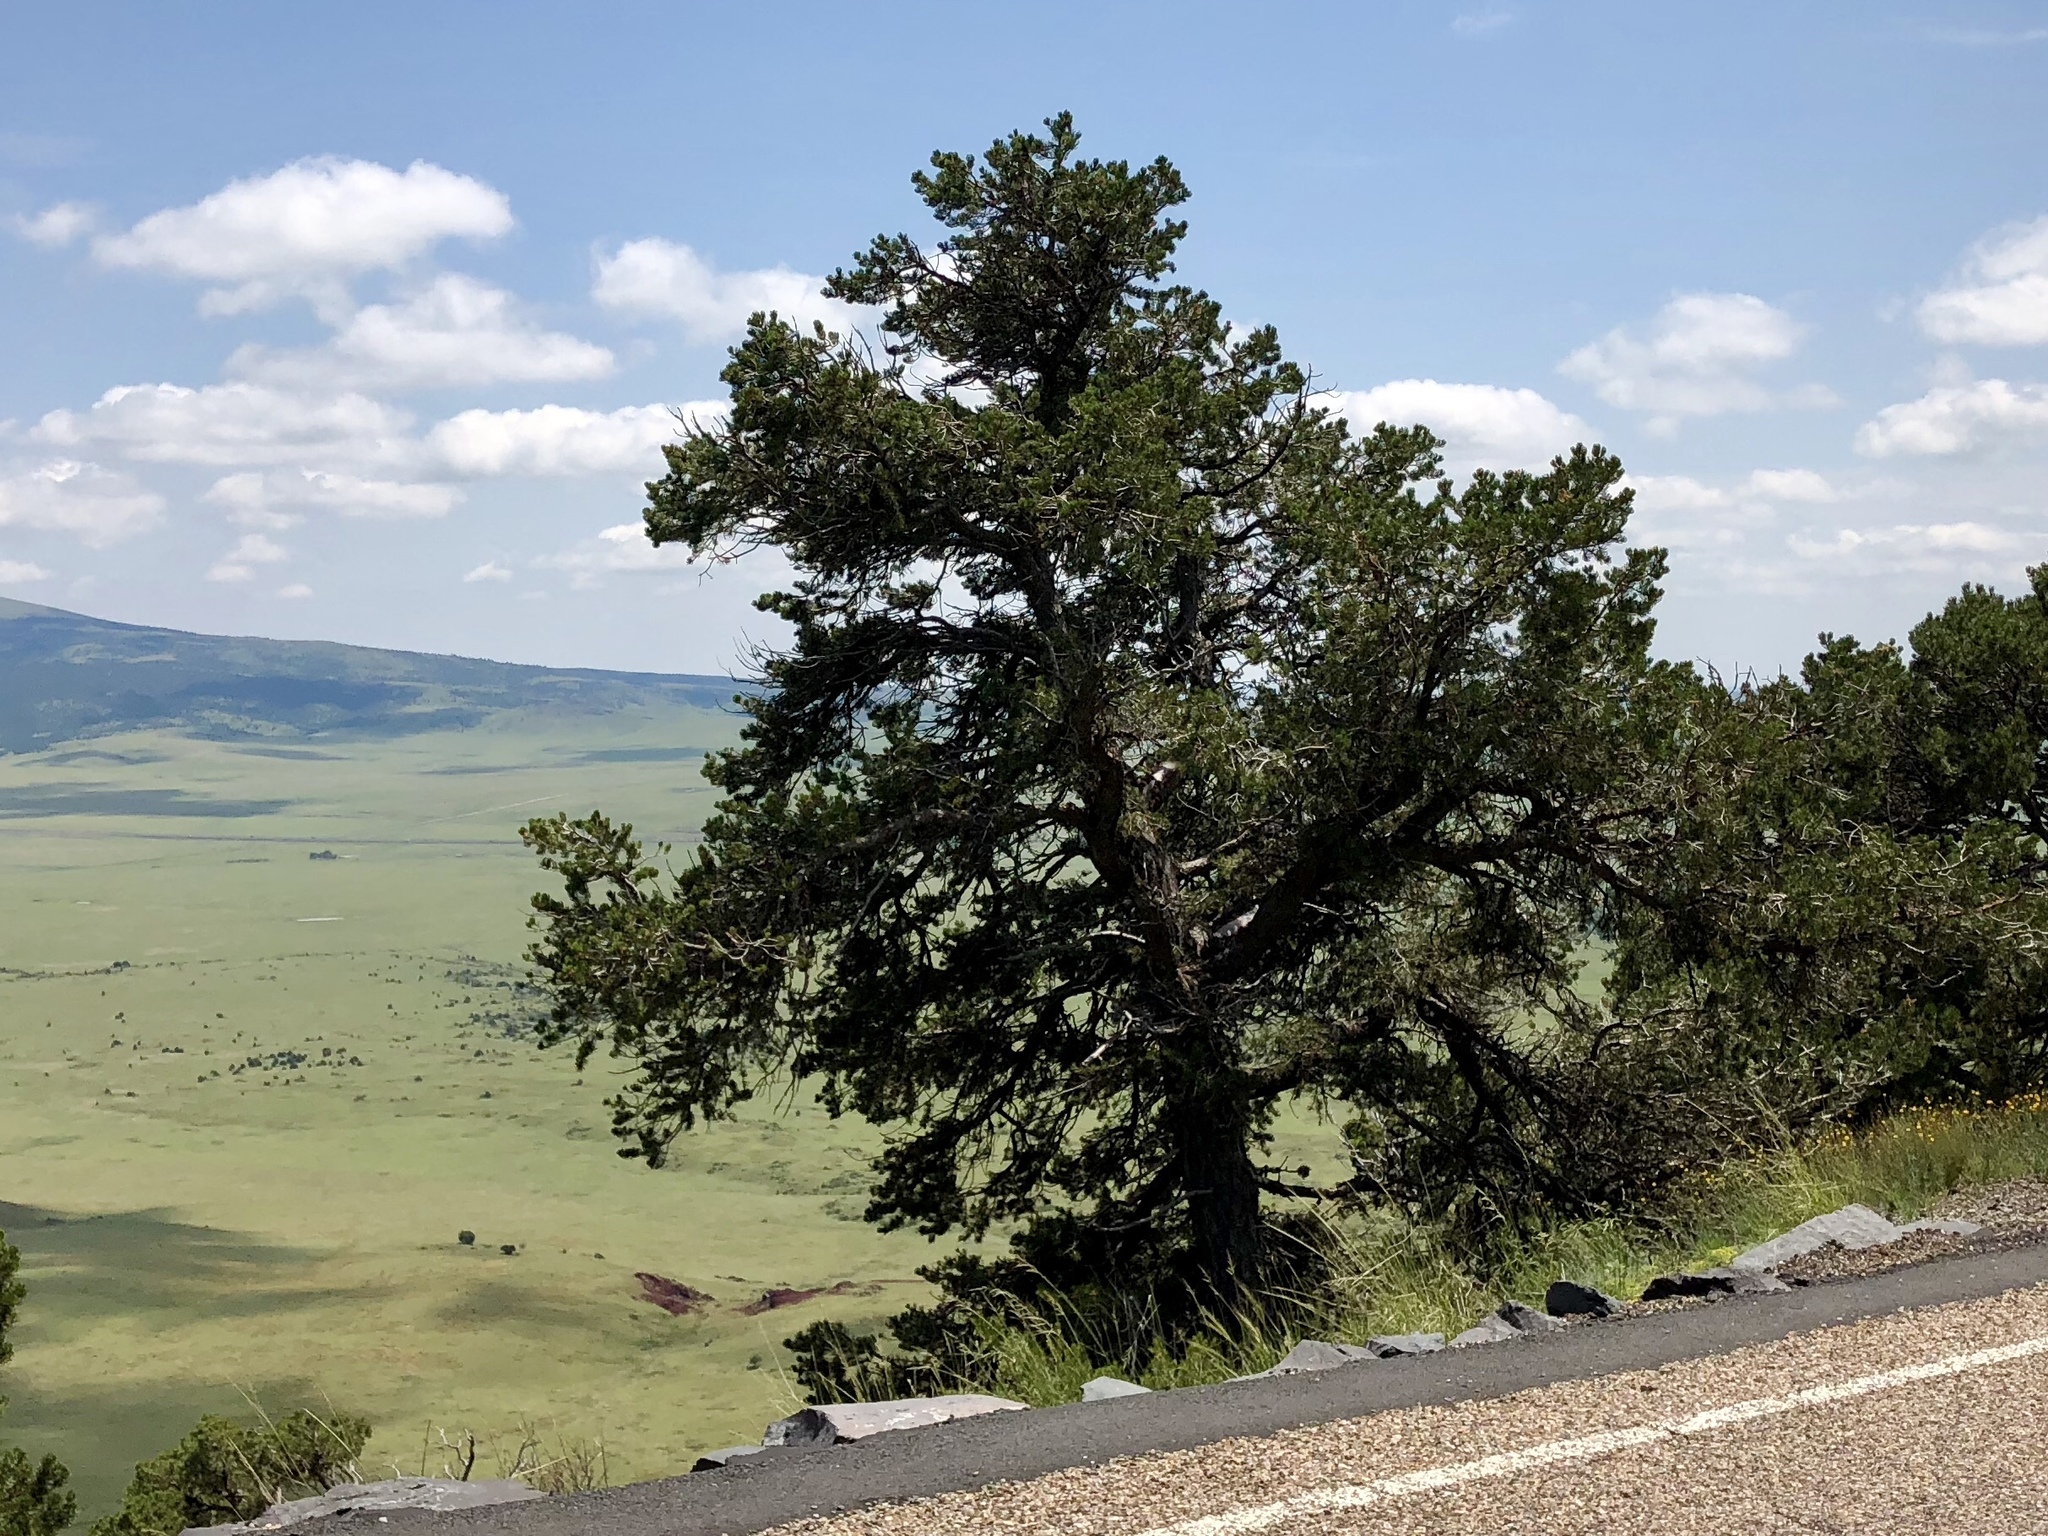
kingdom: Plantae
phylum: Tracheophyta
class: Pinopsida
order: Pinales
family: Pinaceae
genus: Pinus
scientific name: Pinus edulis
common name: Colorado pinyon
